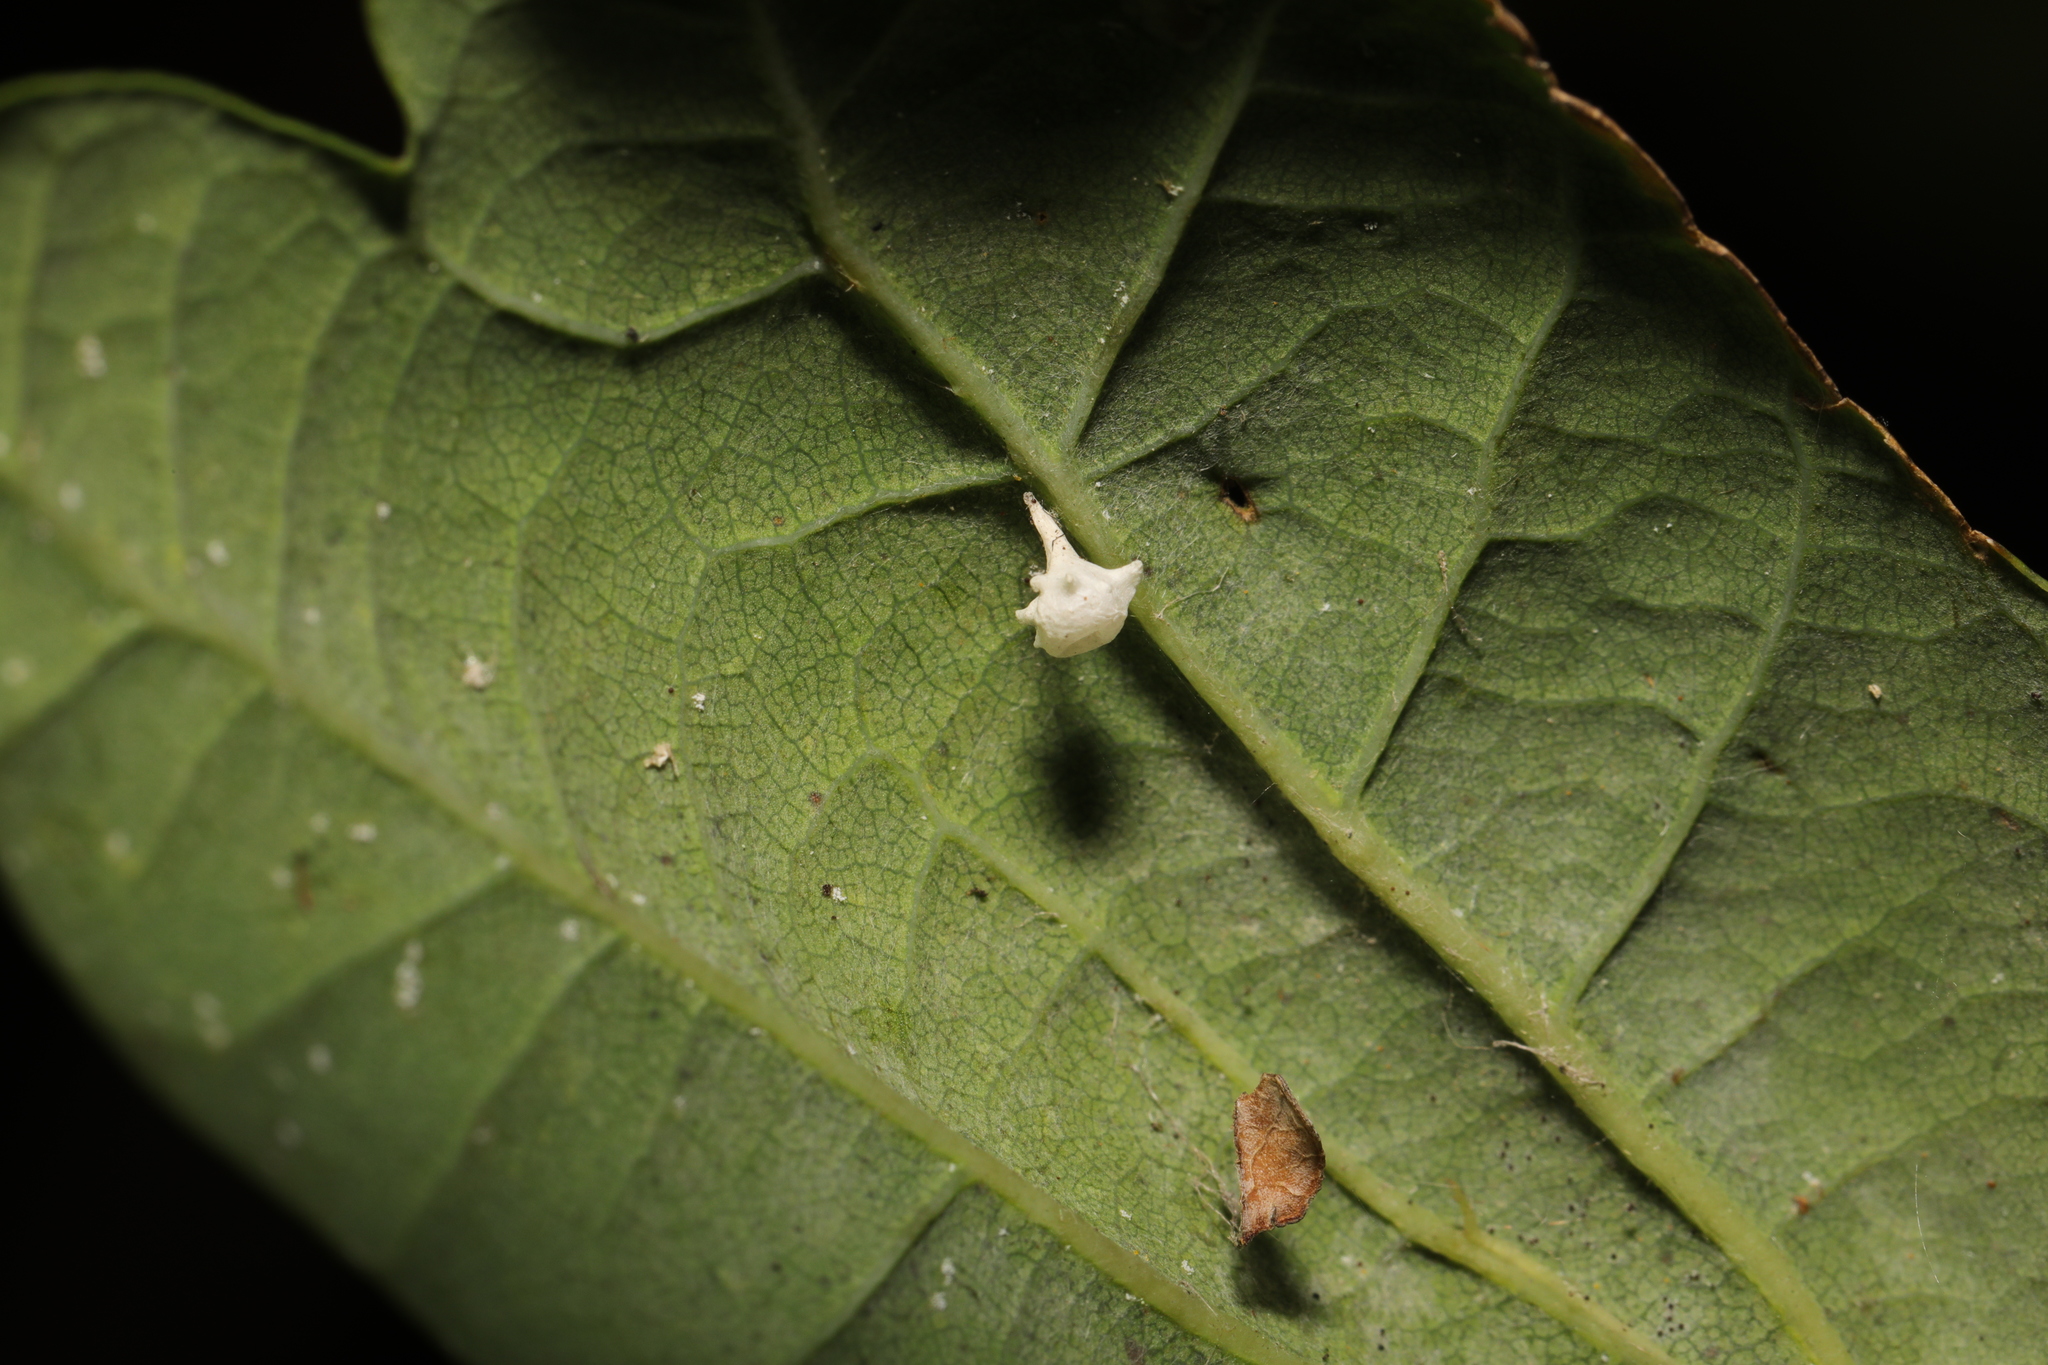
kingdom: Animalia
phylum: Arthropoda
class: Arachnida
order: Araneae
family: Theridiidae
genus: Paidiscura
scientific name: Paidiscura pallens
